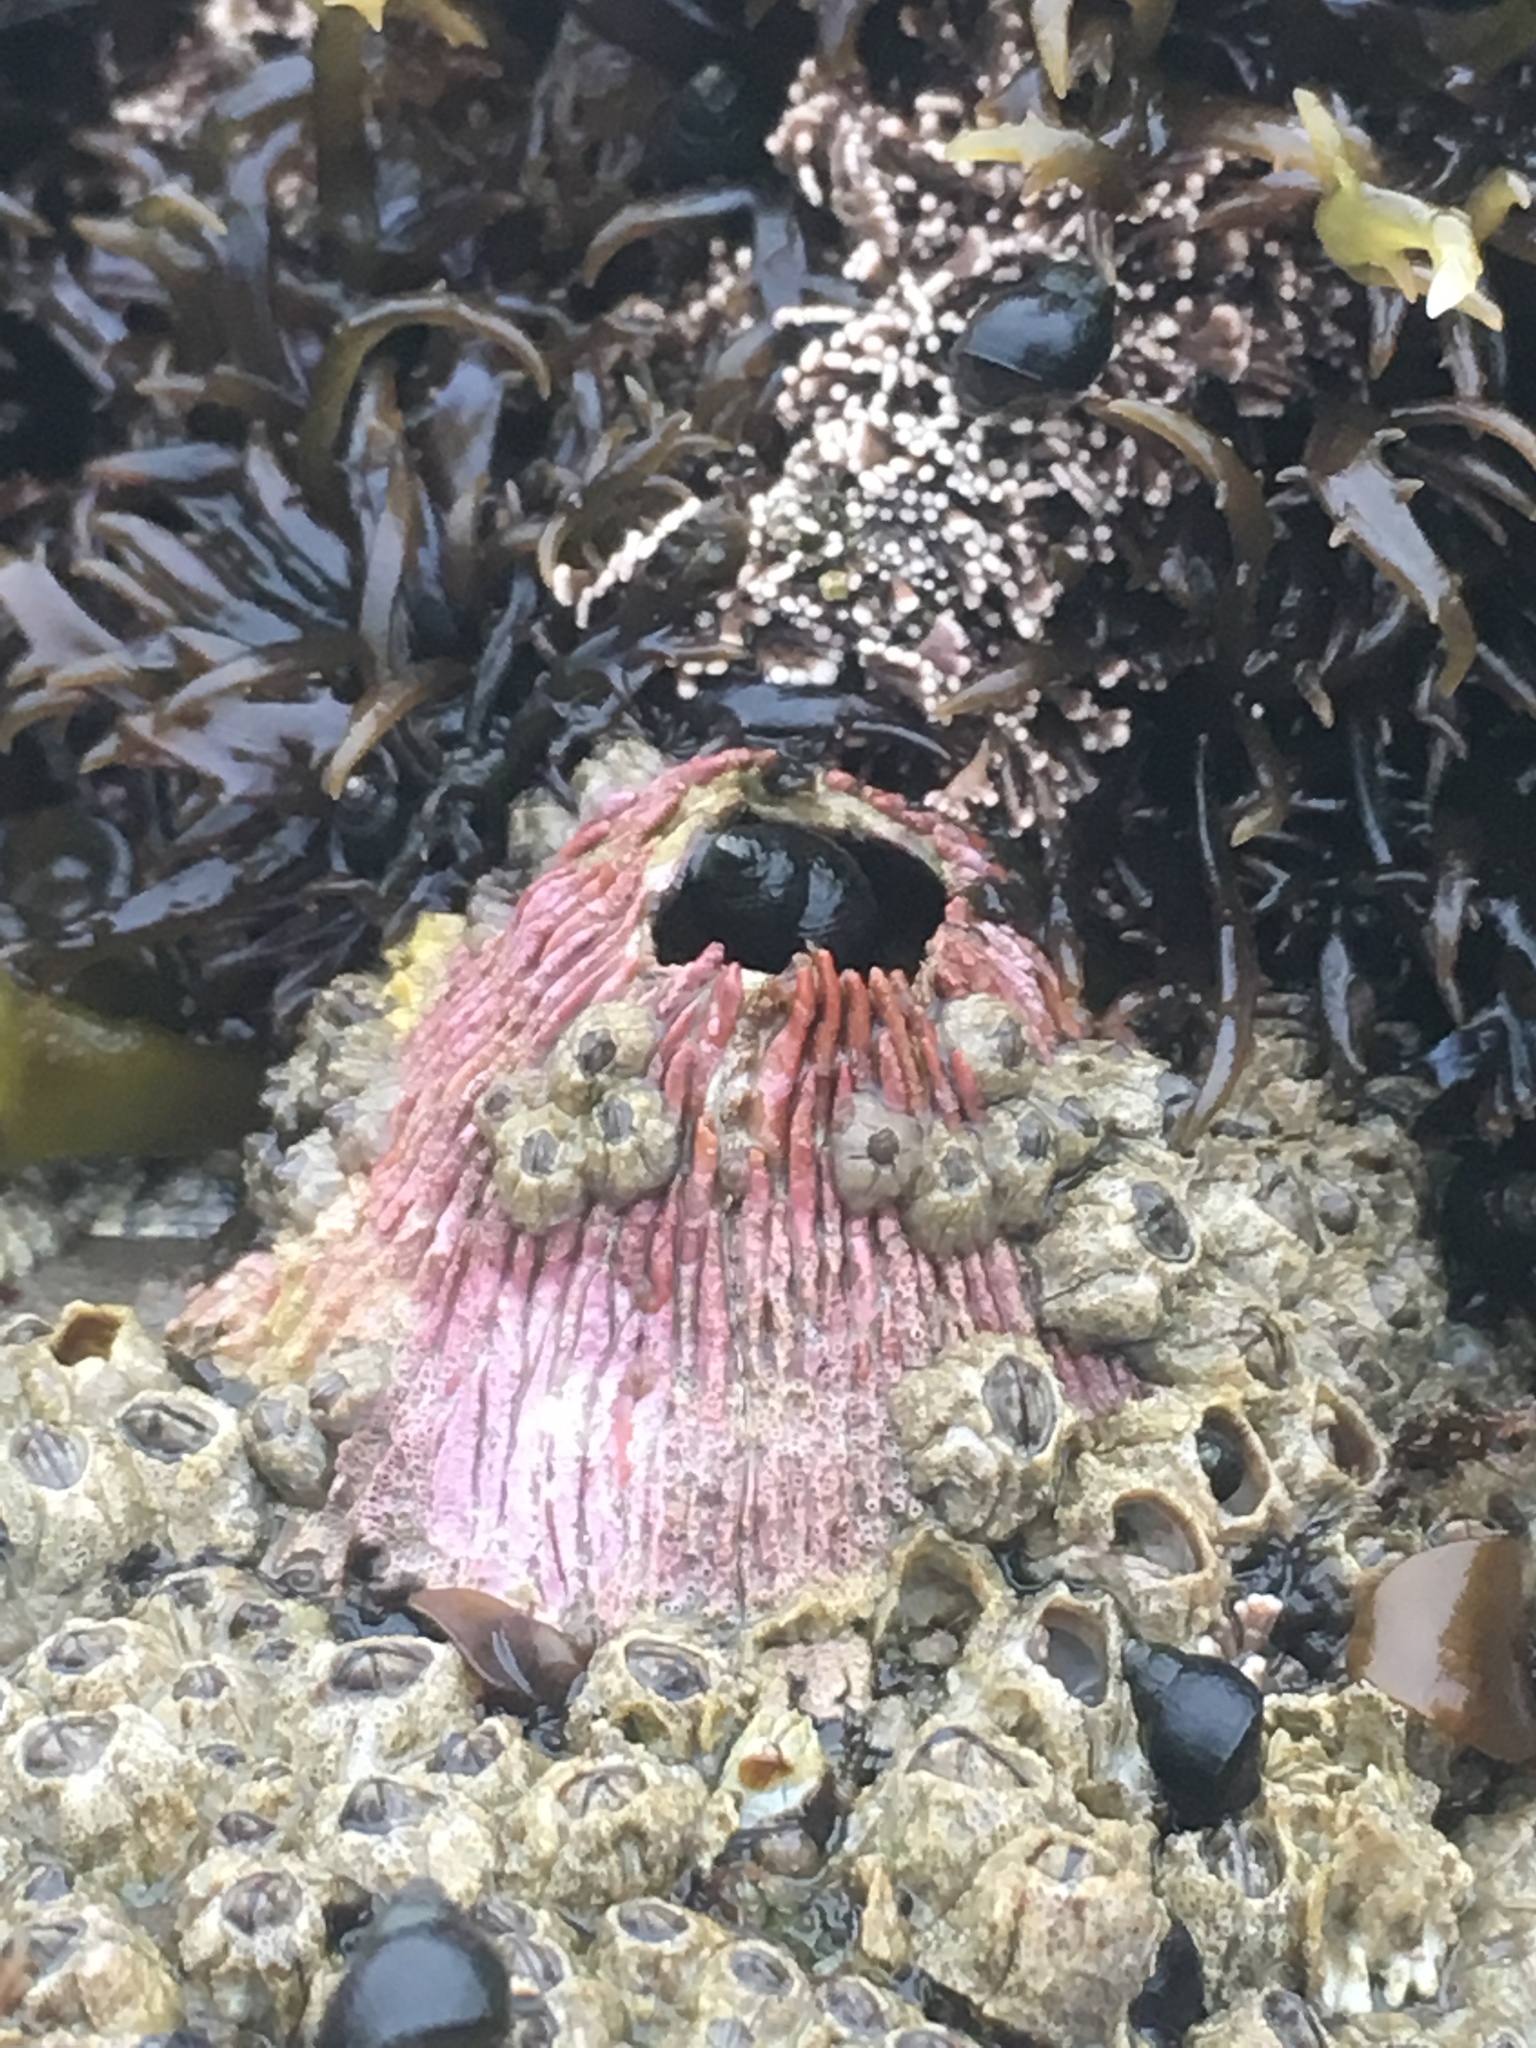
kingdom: Animalia
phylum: Arthropoda
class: Maxillopoda
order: Sessilia
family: Tetraclitidae
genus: Tetraclita
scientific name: Tetraclita rubescens
